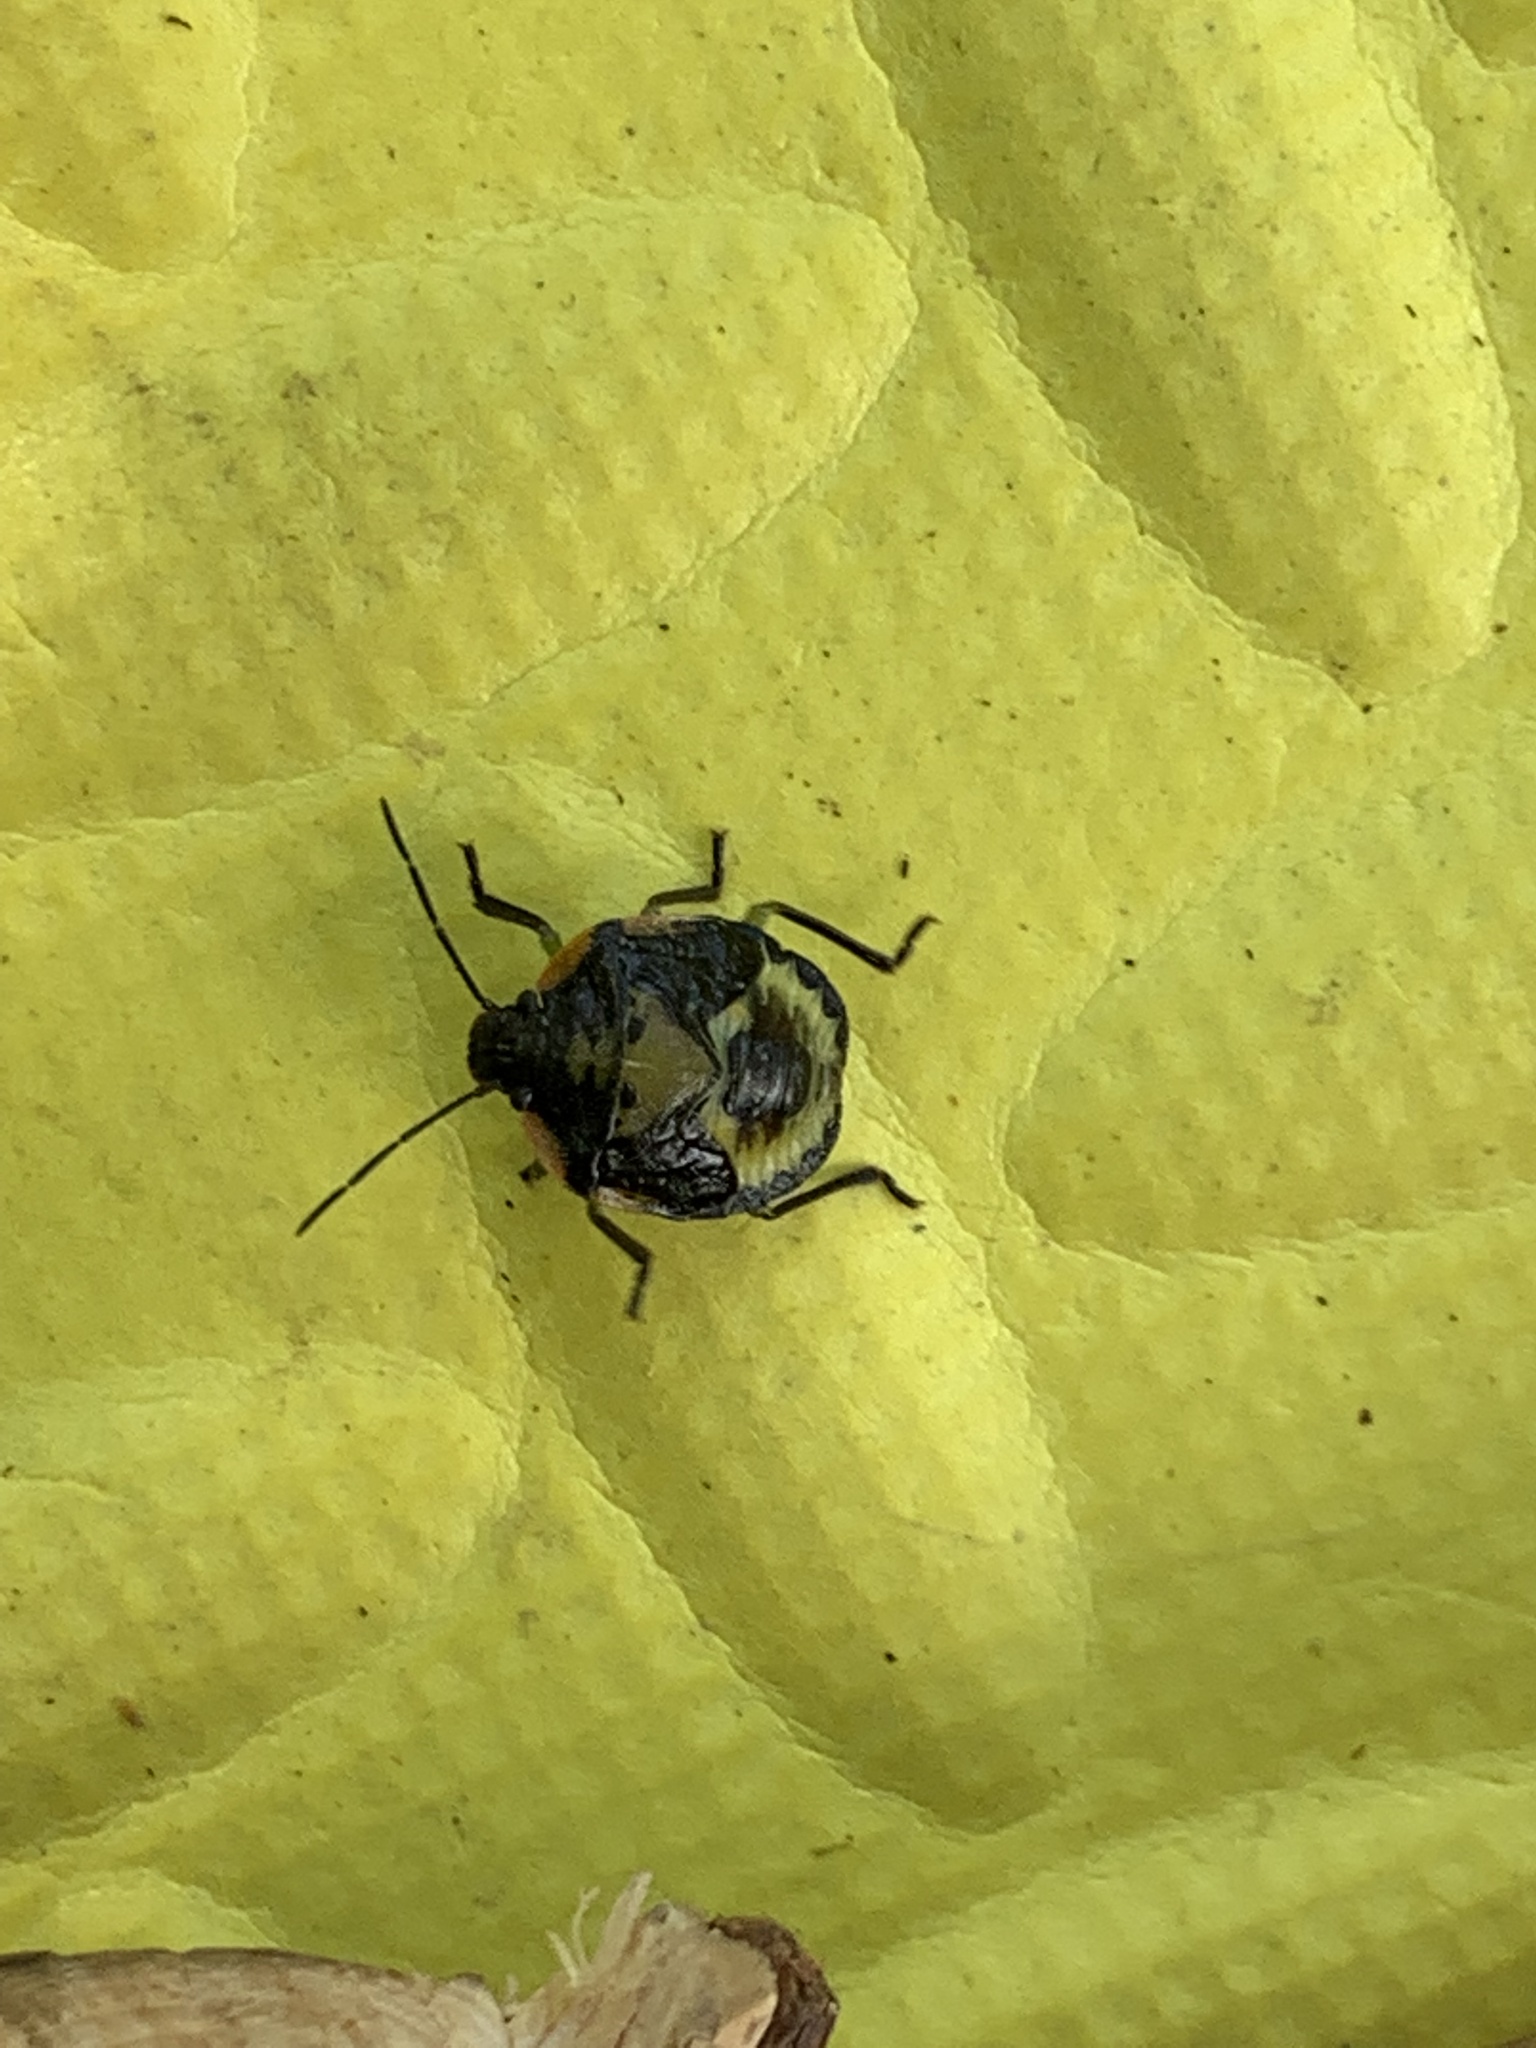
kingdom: Animalia
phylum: Arthropoda
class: Insecta
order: Hemiptera
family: Pentatomidae
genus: Chinavia
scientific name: Chinavia hilaris
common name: Green stink bug
